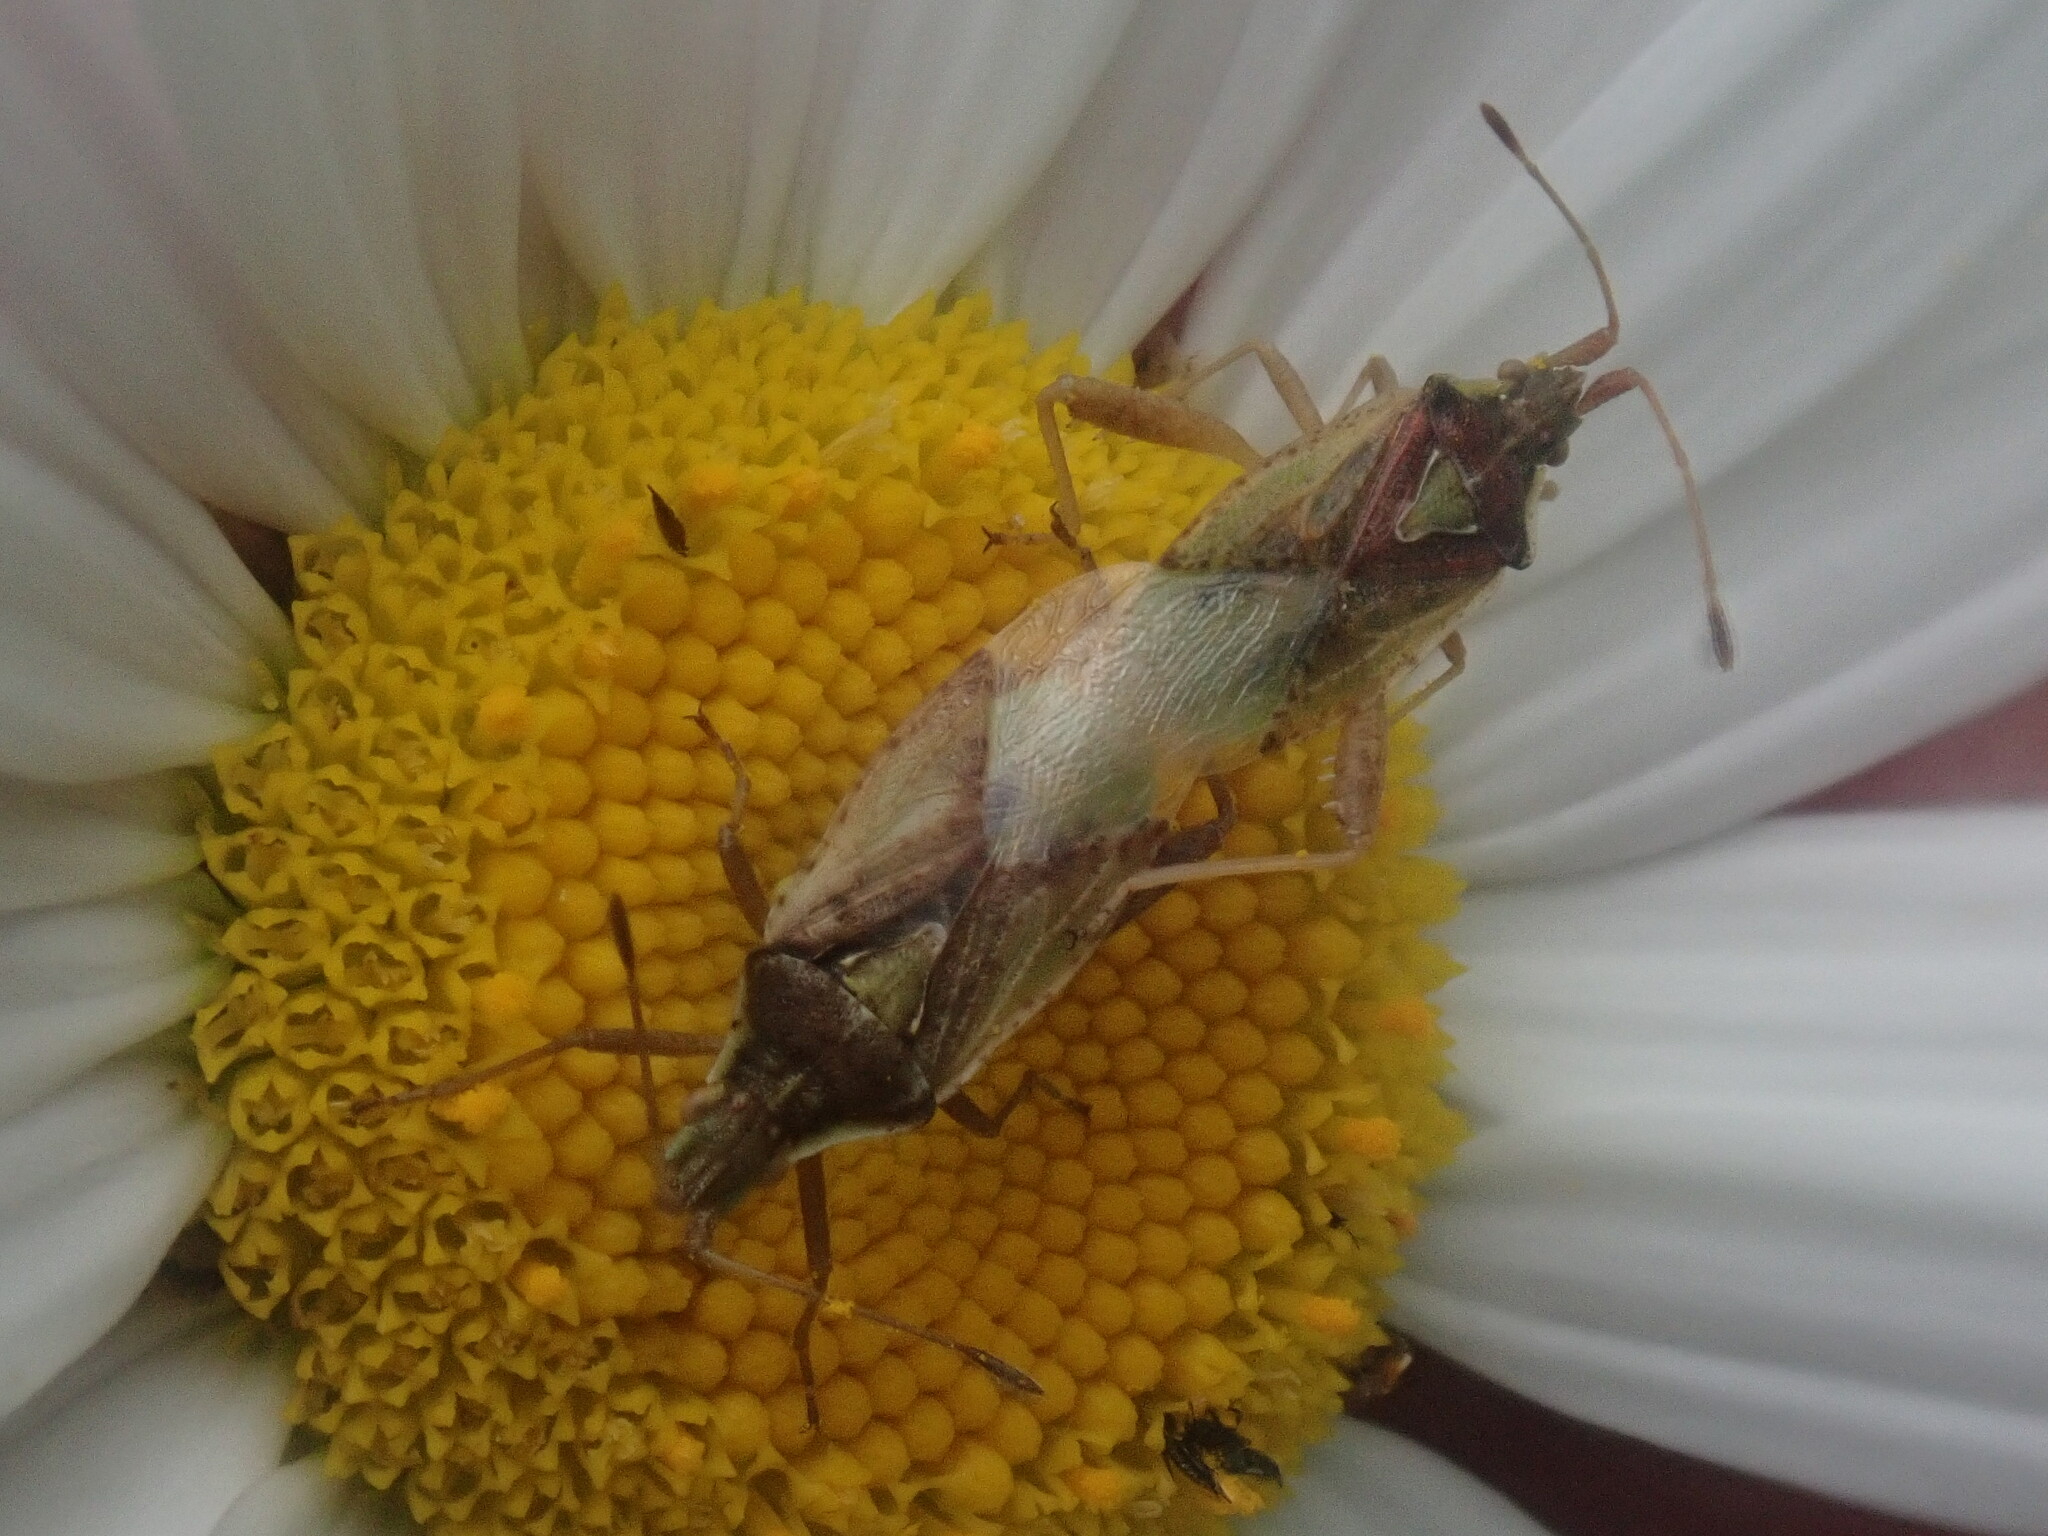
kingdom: Animalia
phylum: Arthropoda
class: Insecta
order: Hemiptera
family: Rhopalidae
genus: Harmostes
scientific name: Harmostes reflexulus
